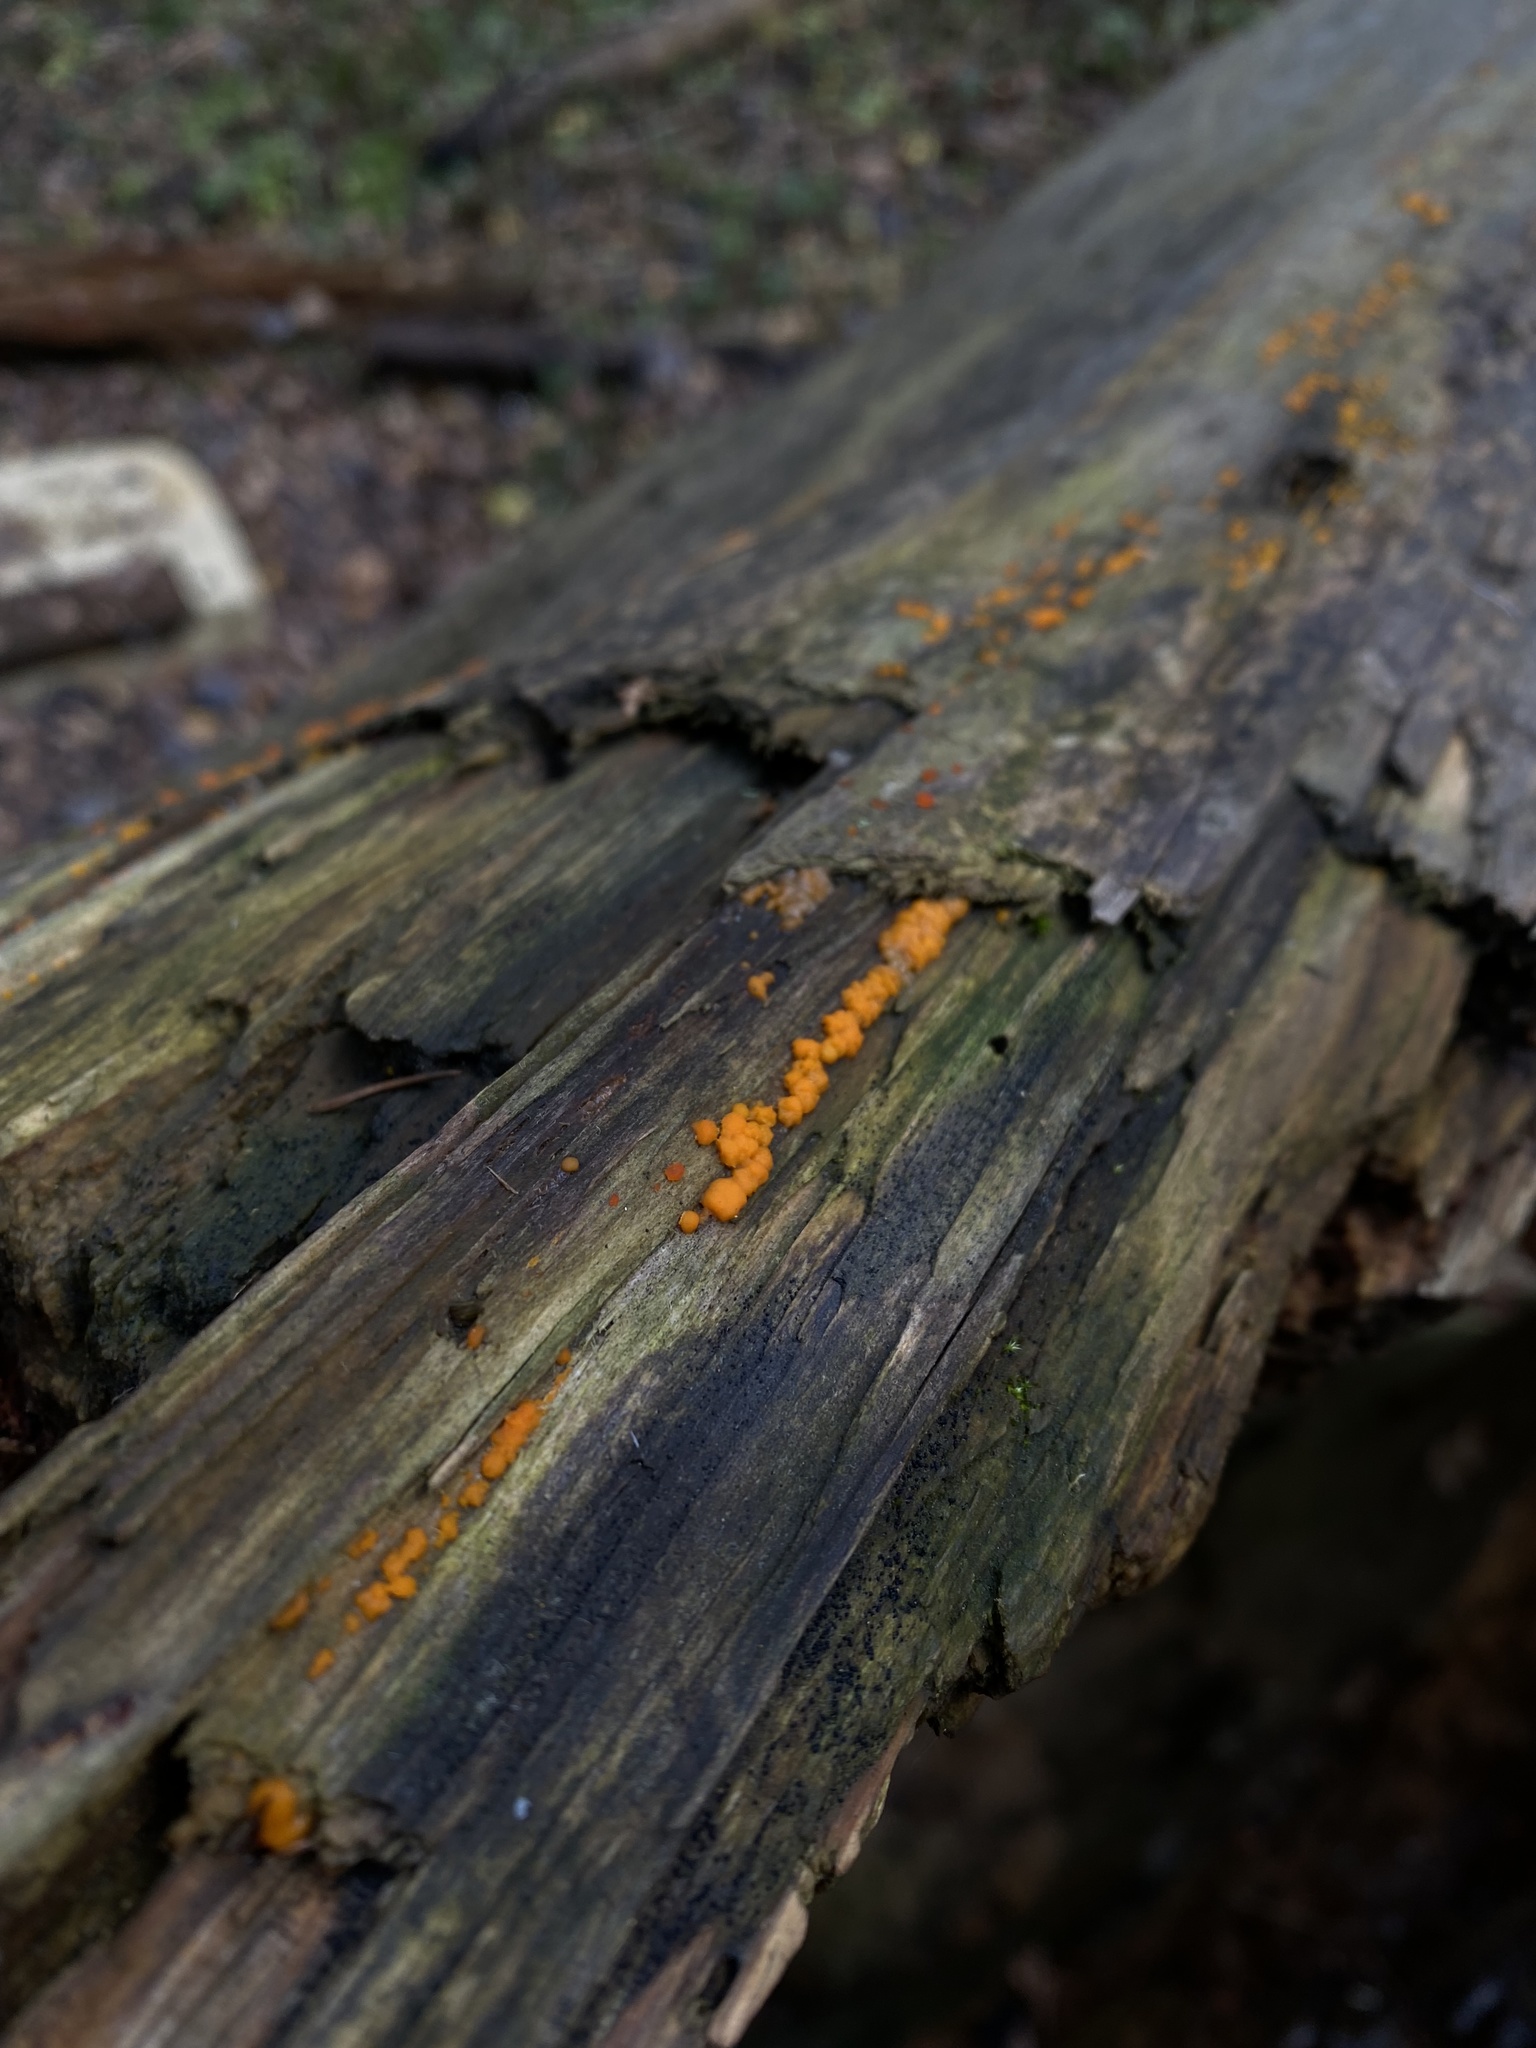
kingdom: Fungi
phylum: Basidiomycota
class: Dacrymycetes
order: Dacrymycetales
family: Dacrymycetaceae
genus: Dacrymyces
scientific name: Dacrymyces stillatus
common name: Common jelly spot
